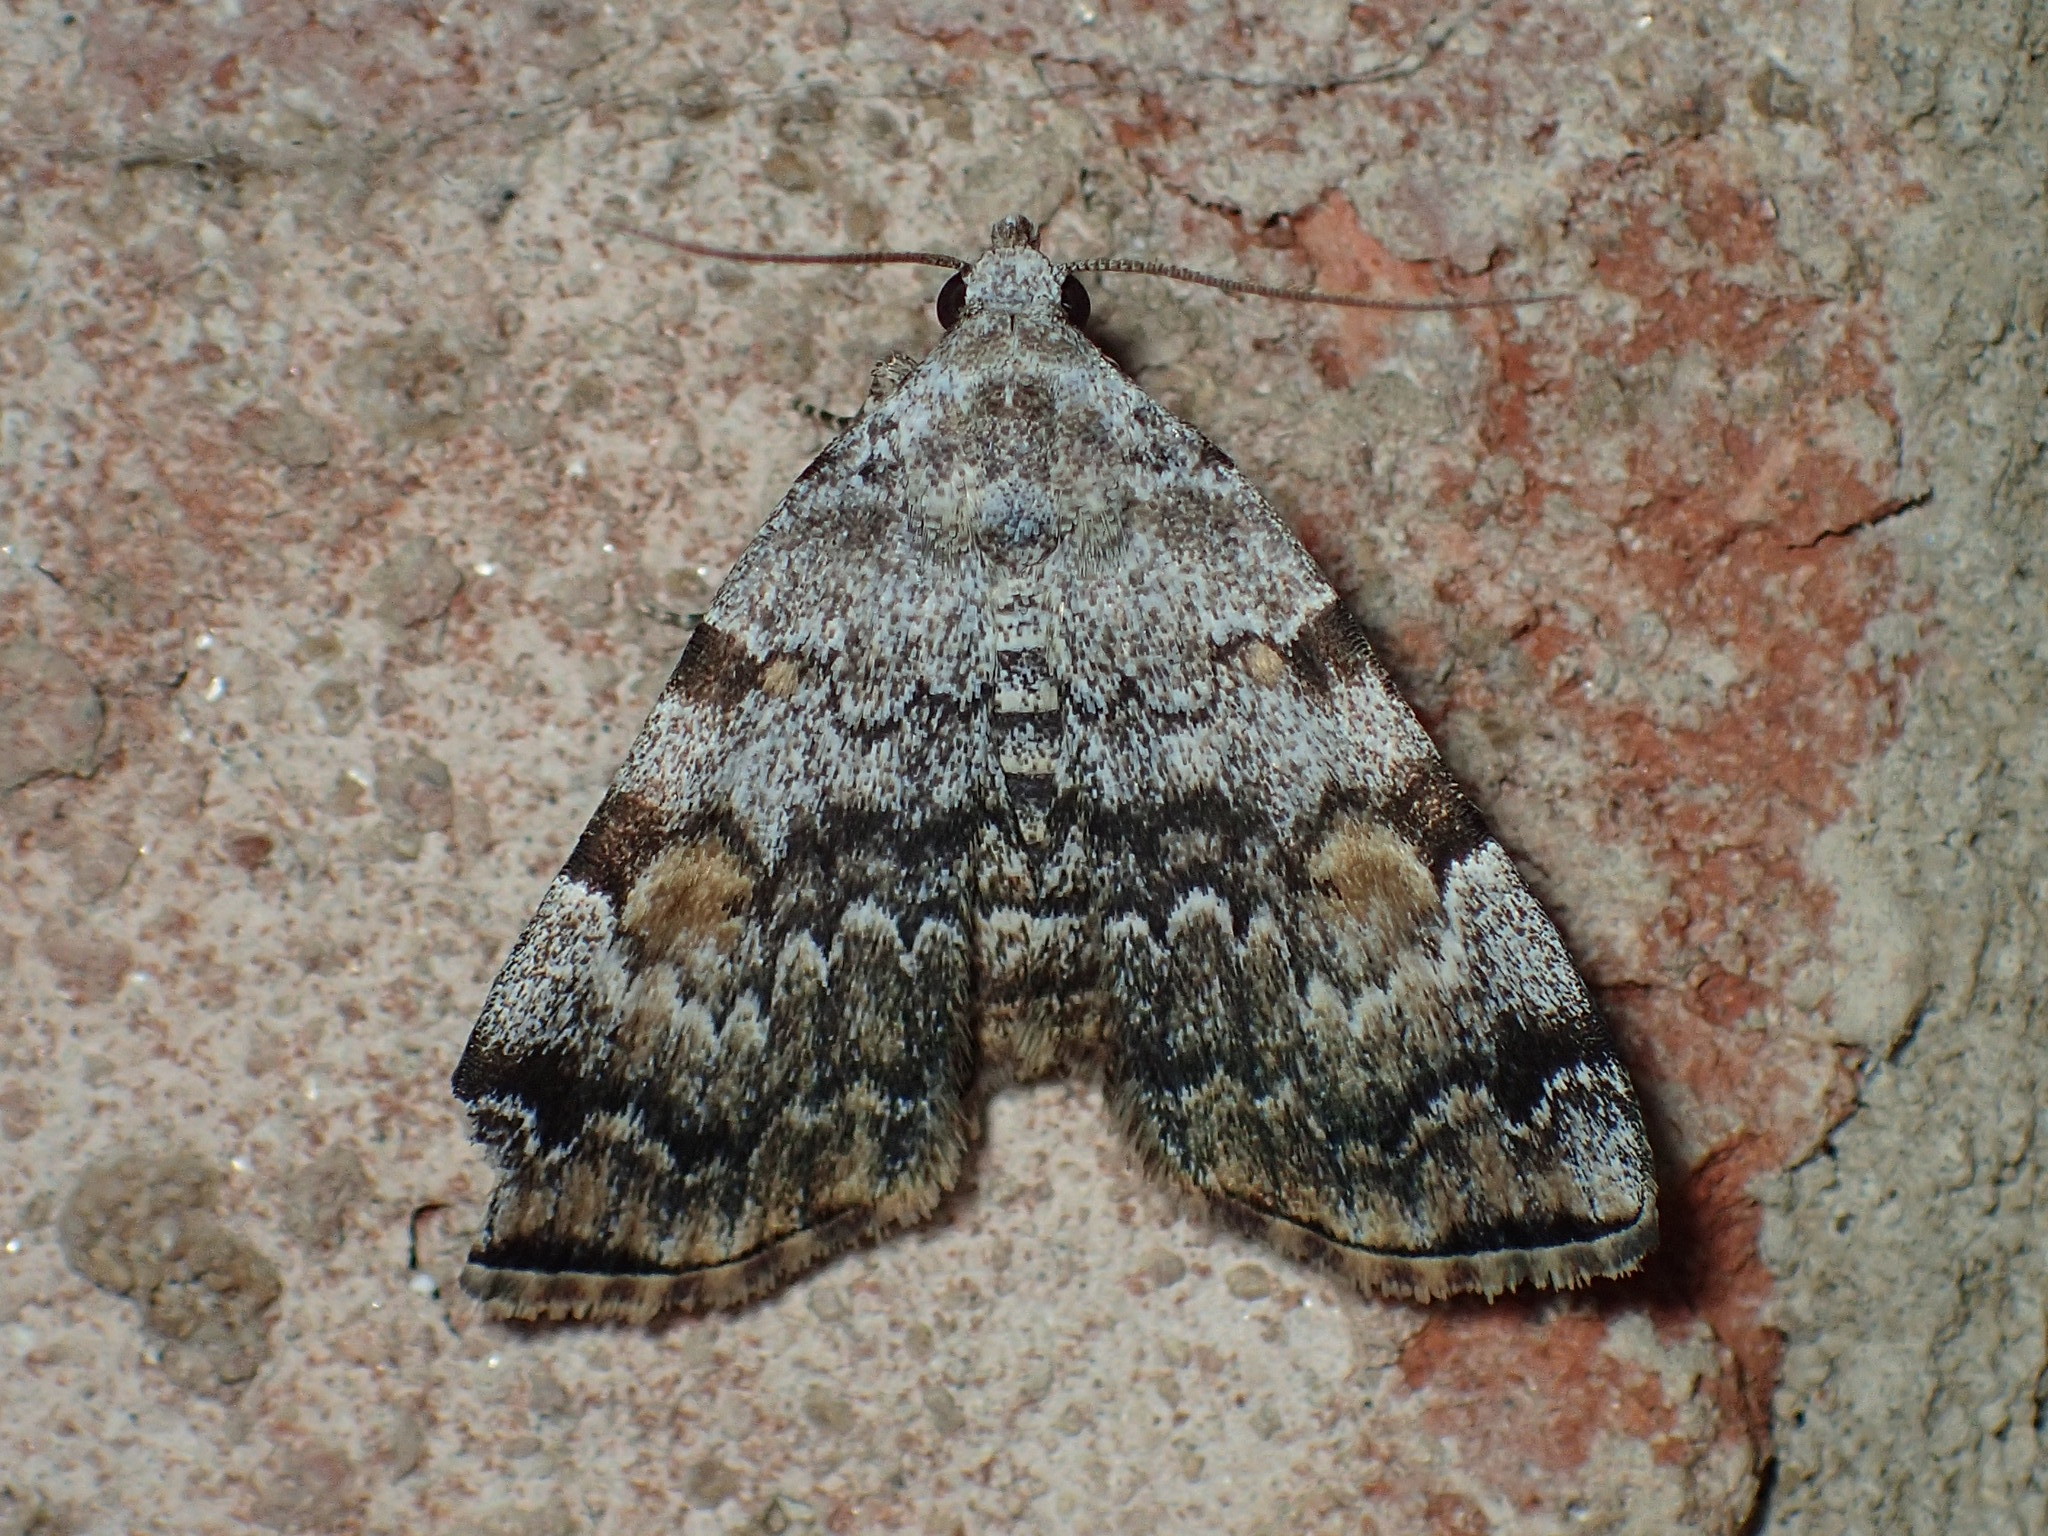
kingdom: Animalia
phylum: Arthropoda
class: Insecta
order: Lepidoptera
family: Erebidae
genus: Idia
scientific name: Idia americalis
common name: American idia moth
